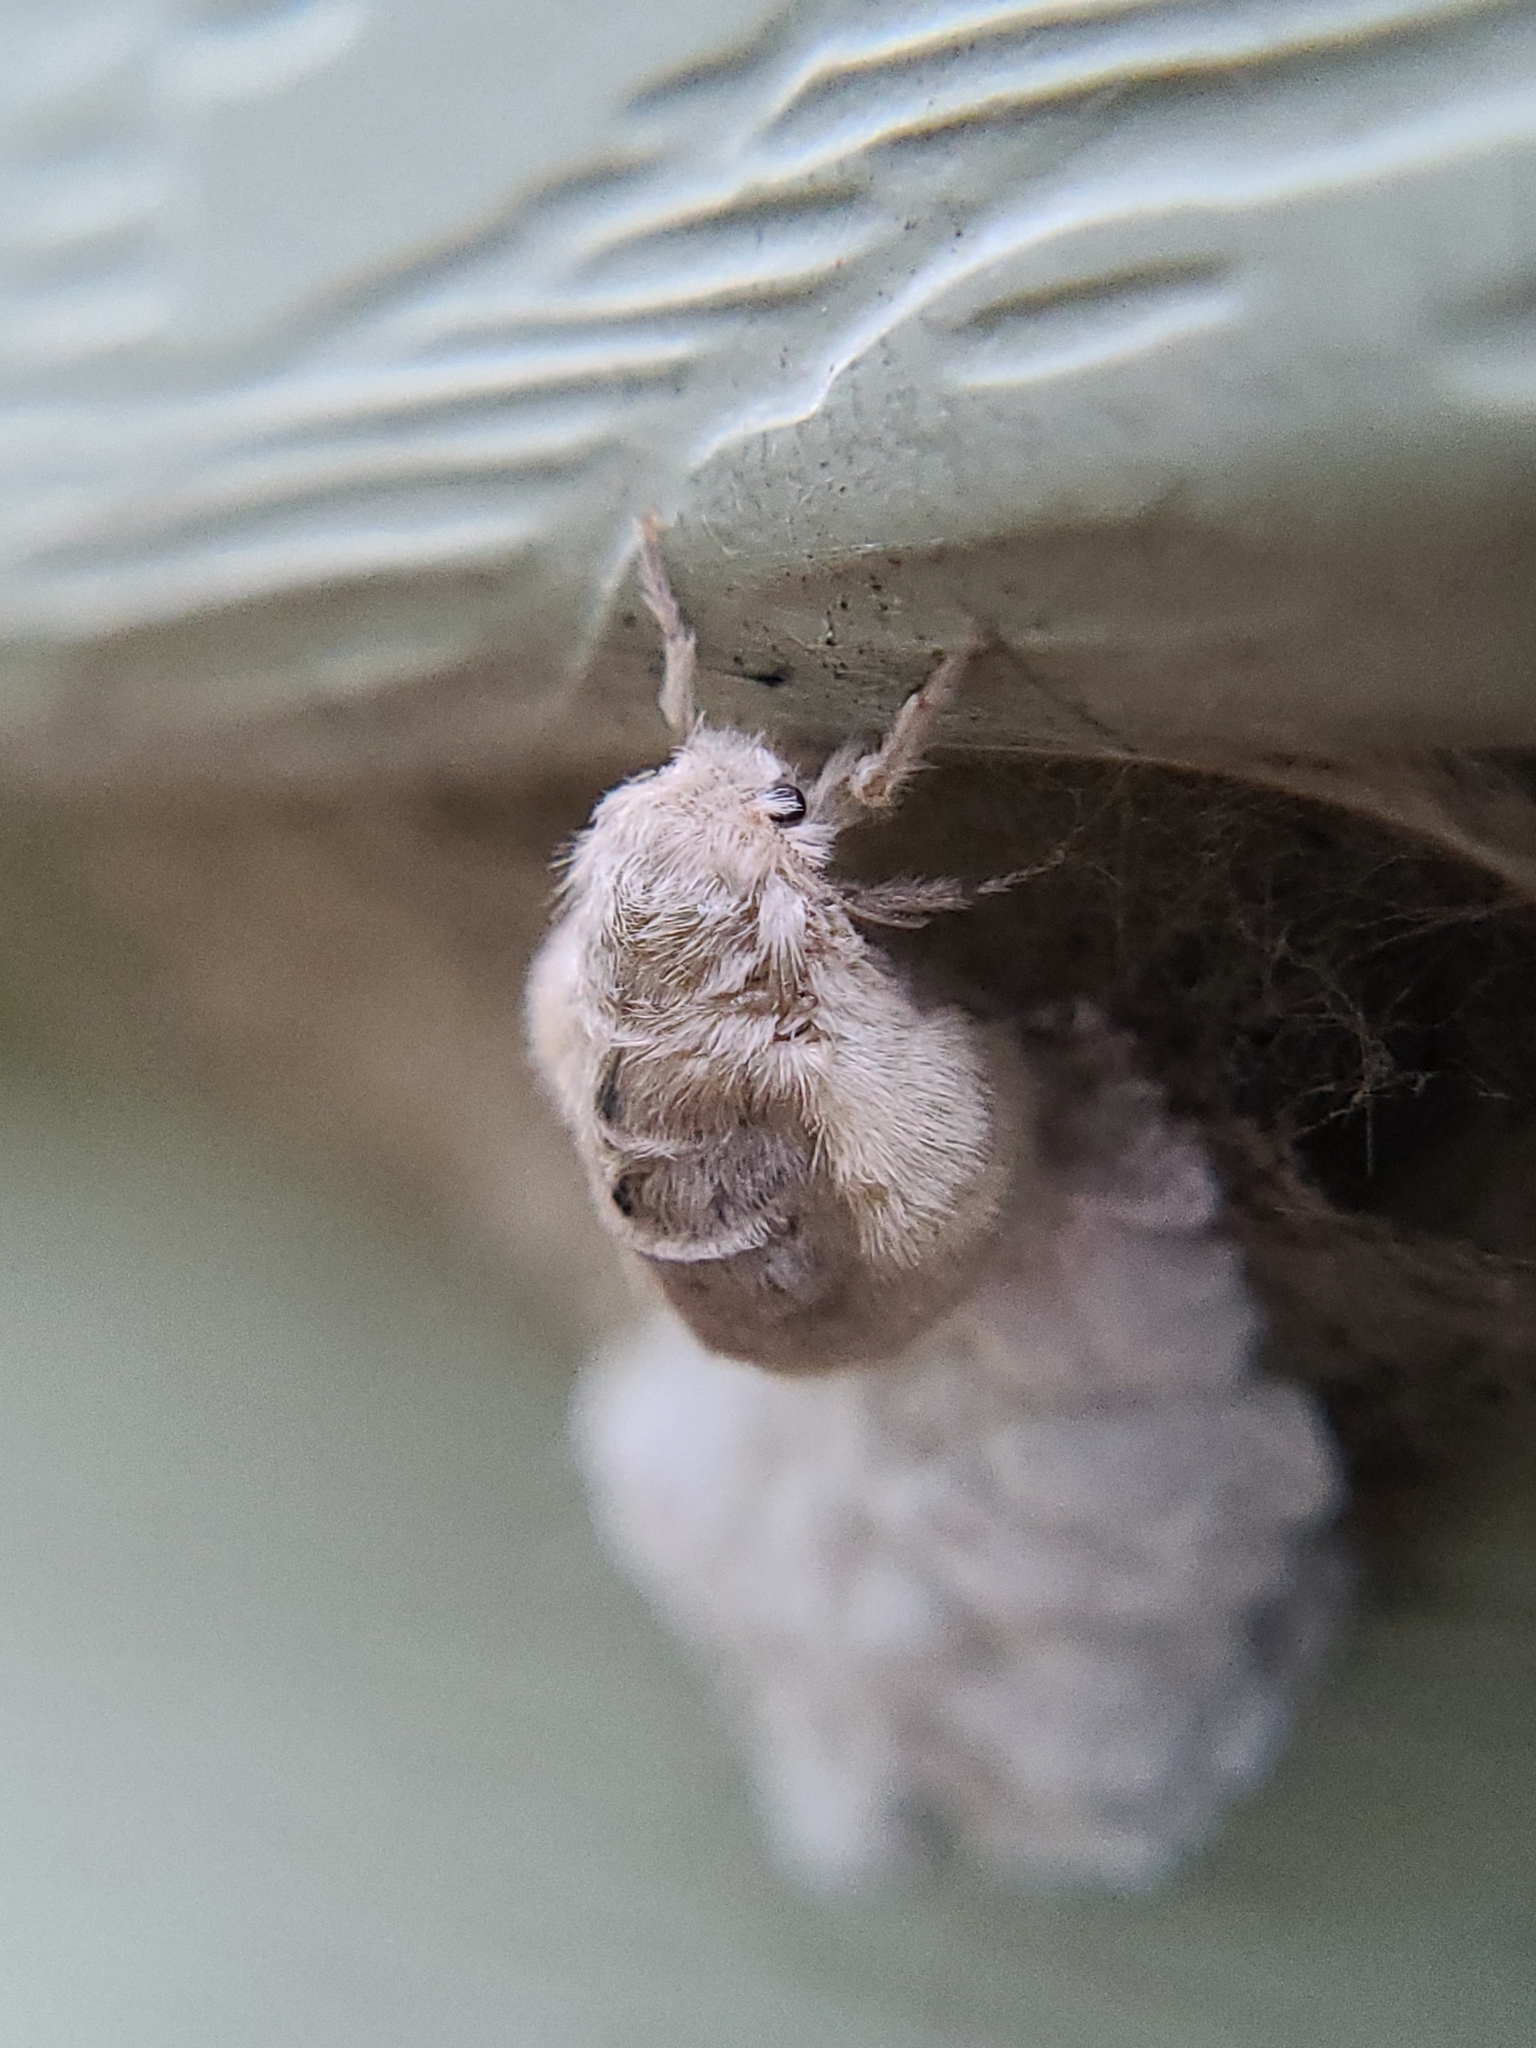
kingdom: Animalia
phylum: Arthropoda
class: Insecta
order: Lepidoptera
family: Erebidae
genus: Orgyia
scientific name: Orgyia antiqua
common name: Vapourer
